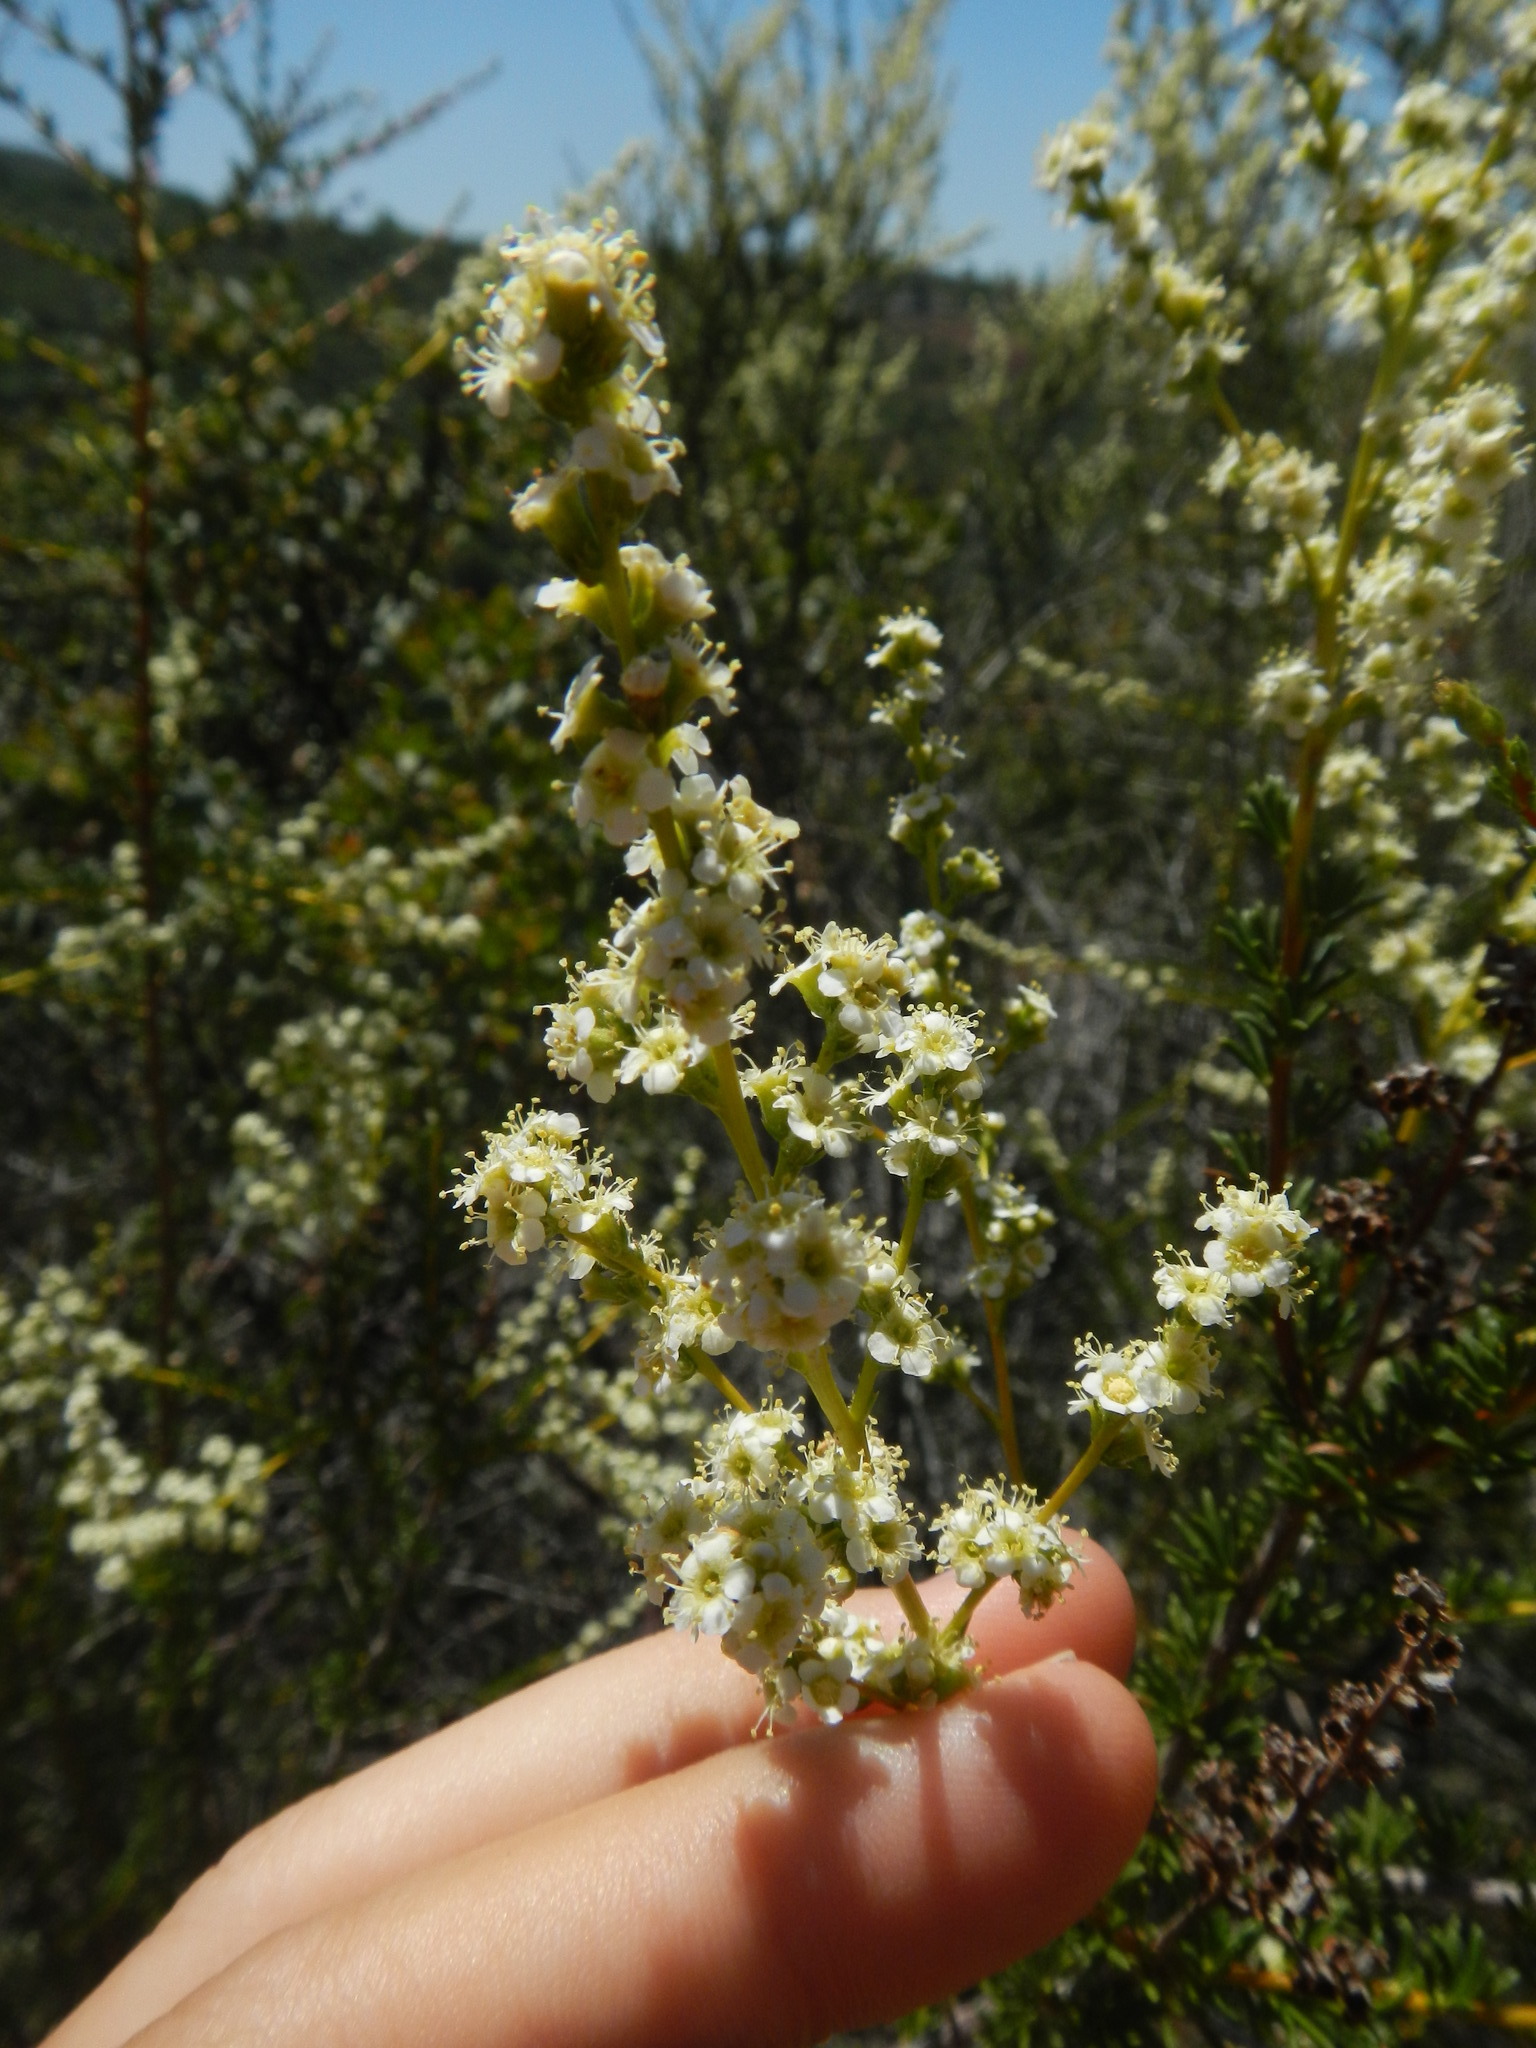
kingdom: Plantae
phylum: Tracheophyta
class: Magnoliopsida
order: Rosales
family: Rosaceae
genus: Adenostoma
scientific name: Adenostoma fasciculatum
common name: Chamise
